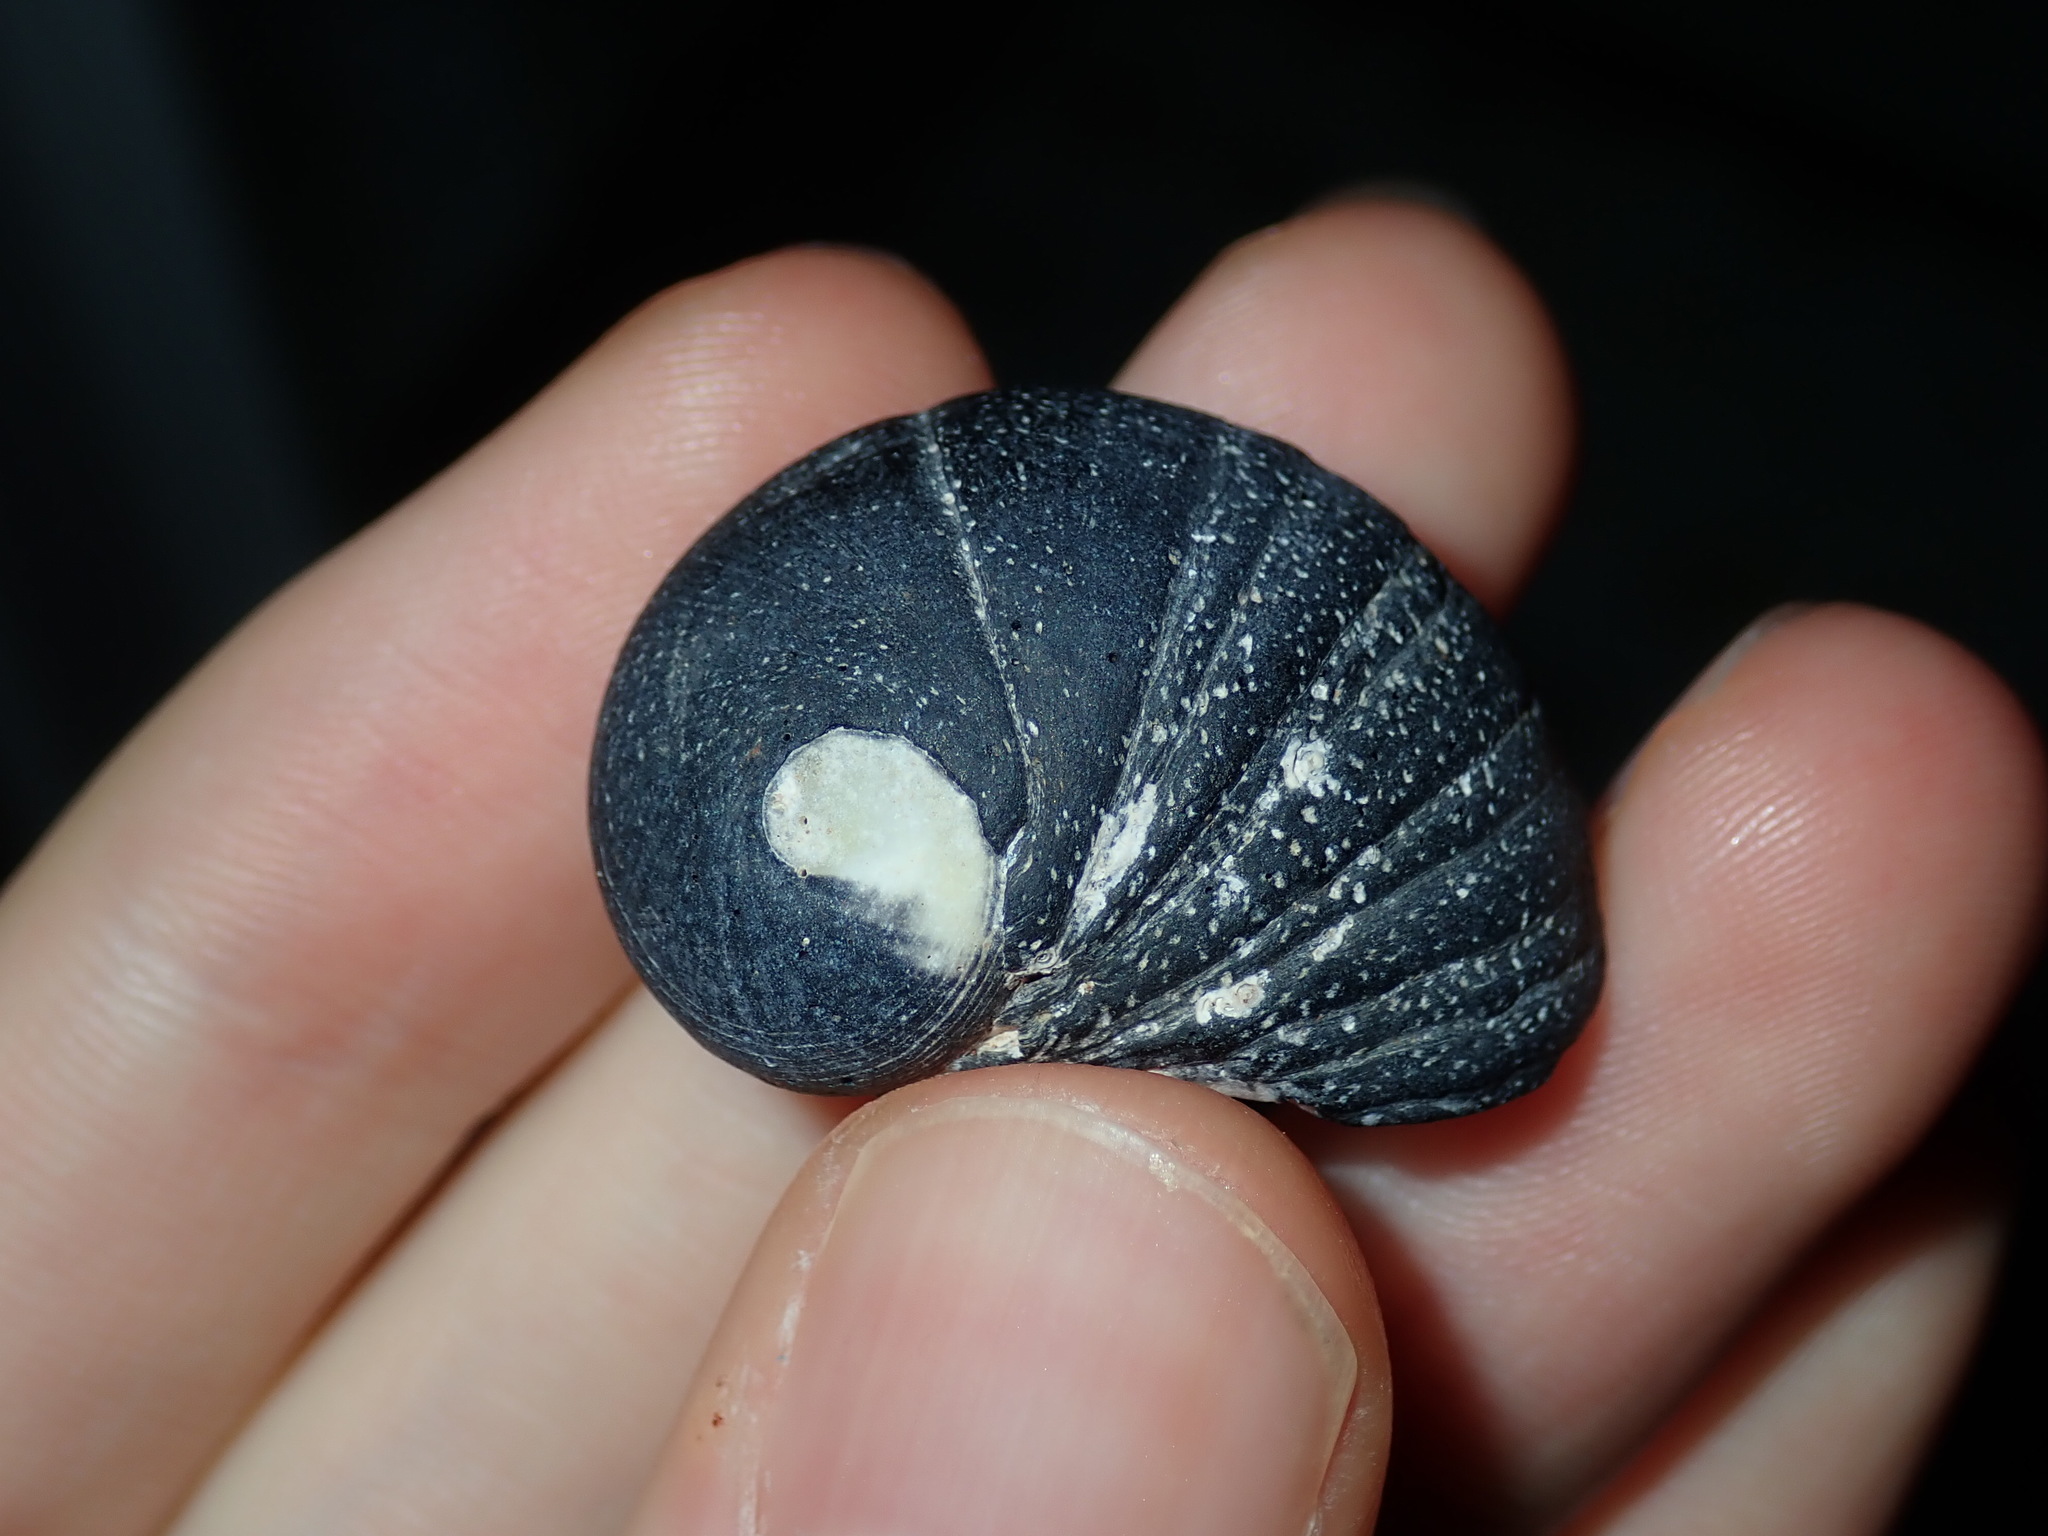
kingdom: Animalia
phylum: Mollusca
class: Gastropoda
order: Cycloneritida
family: Neritidae
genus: Nerita
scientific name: Nerita melanotragus
